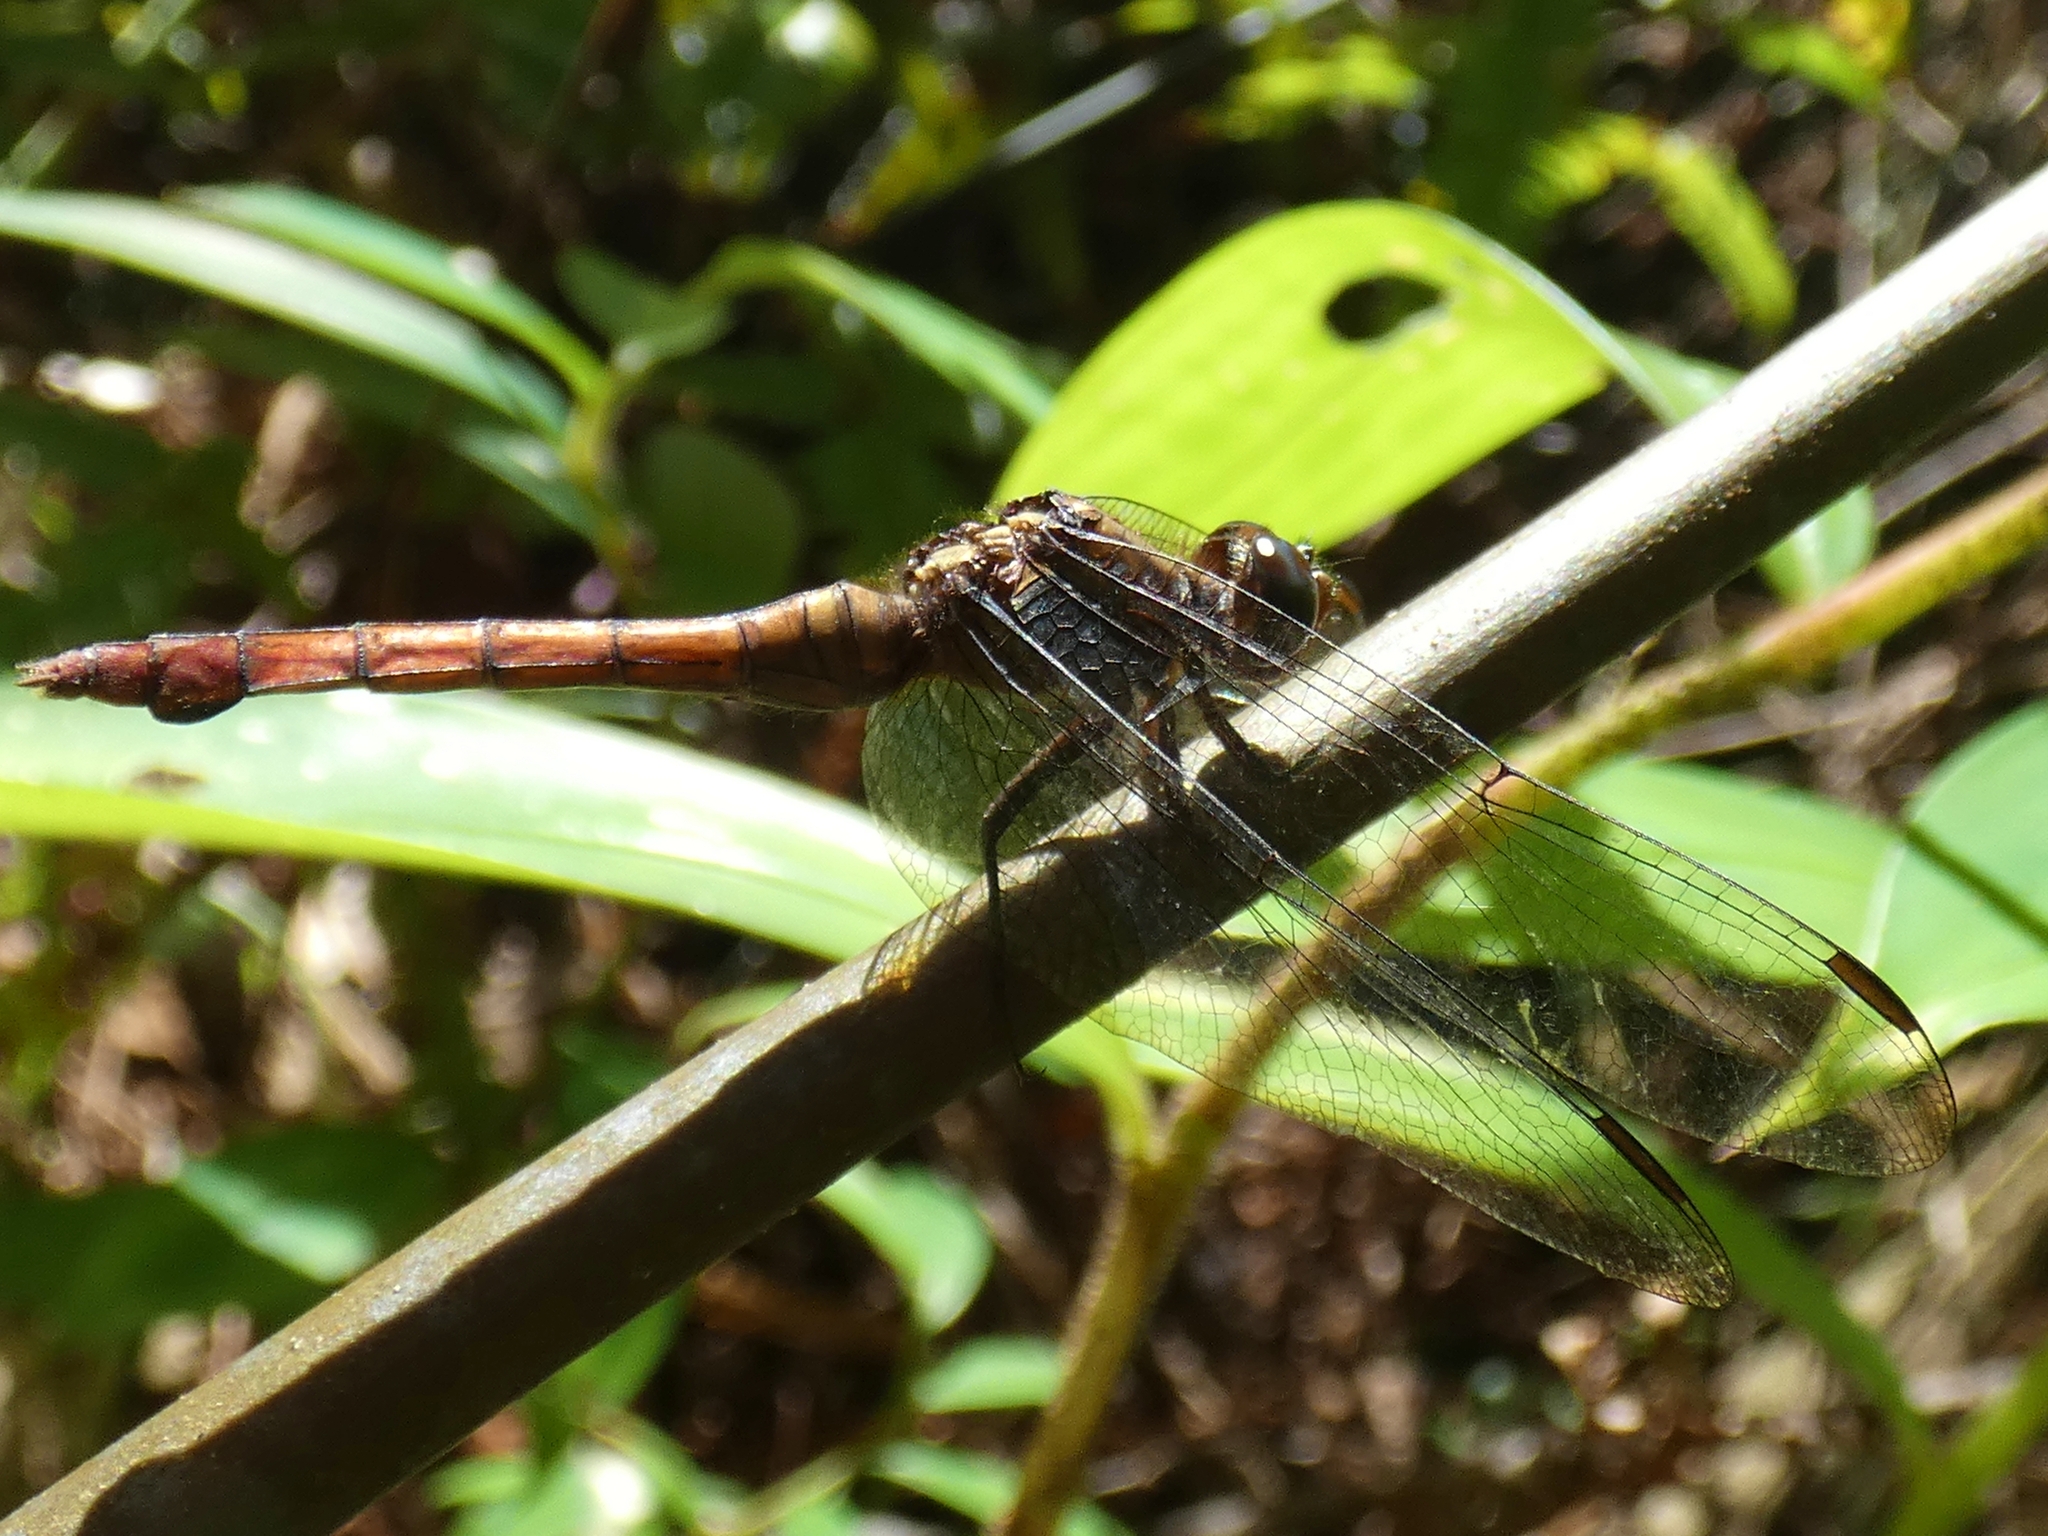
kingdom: Animalia
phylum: Arthropoda
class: Insecta
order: Odonata
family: Libellulidae
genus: Orthetrum
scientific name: Orthetrum villosovittatum
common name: Firery skimmer
